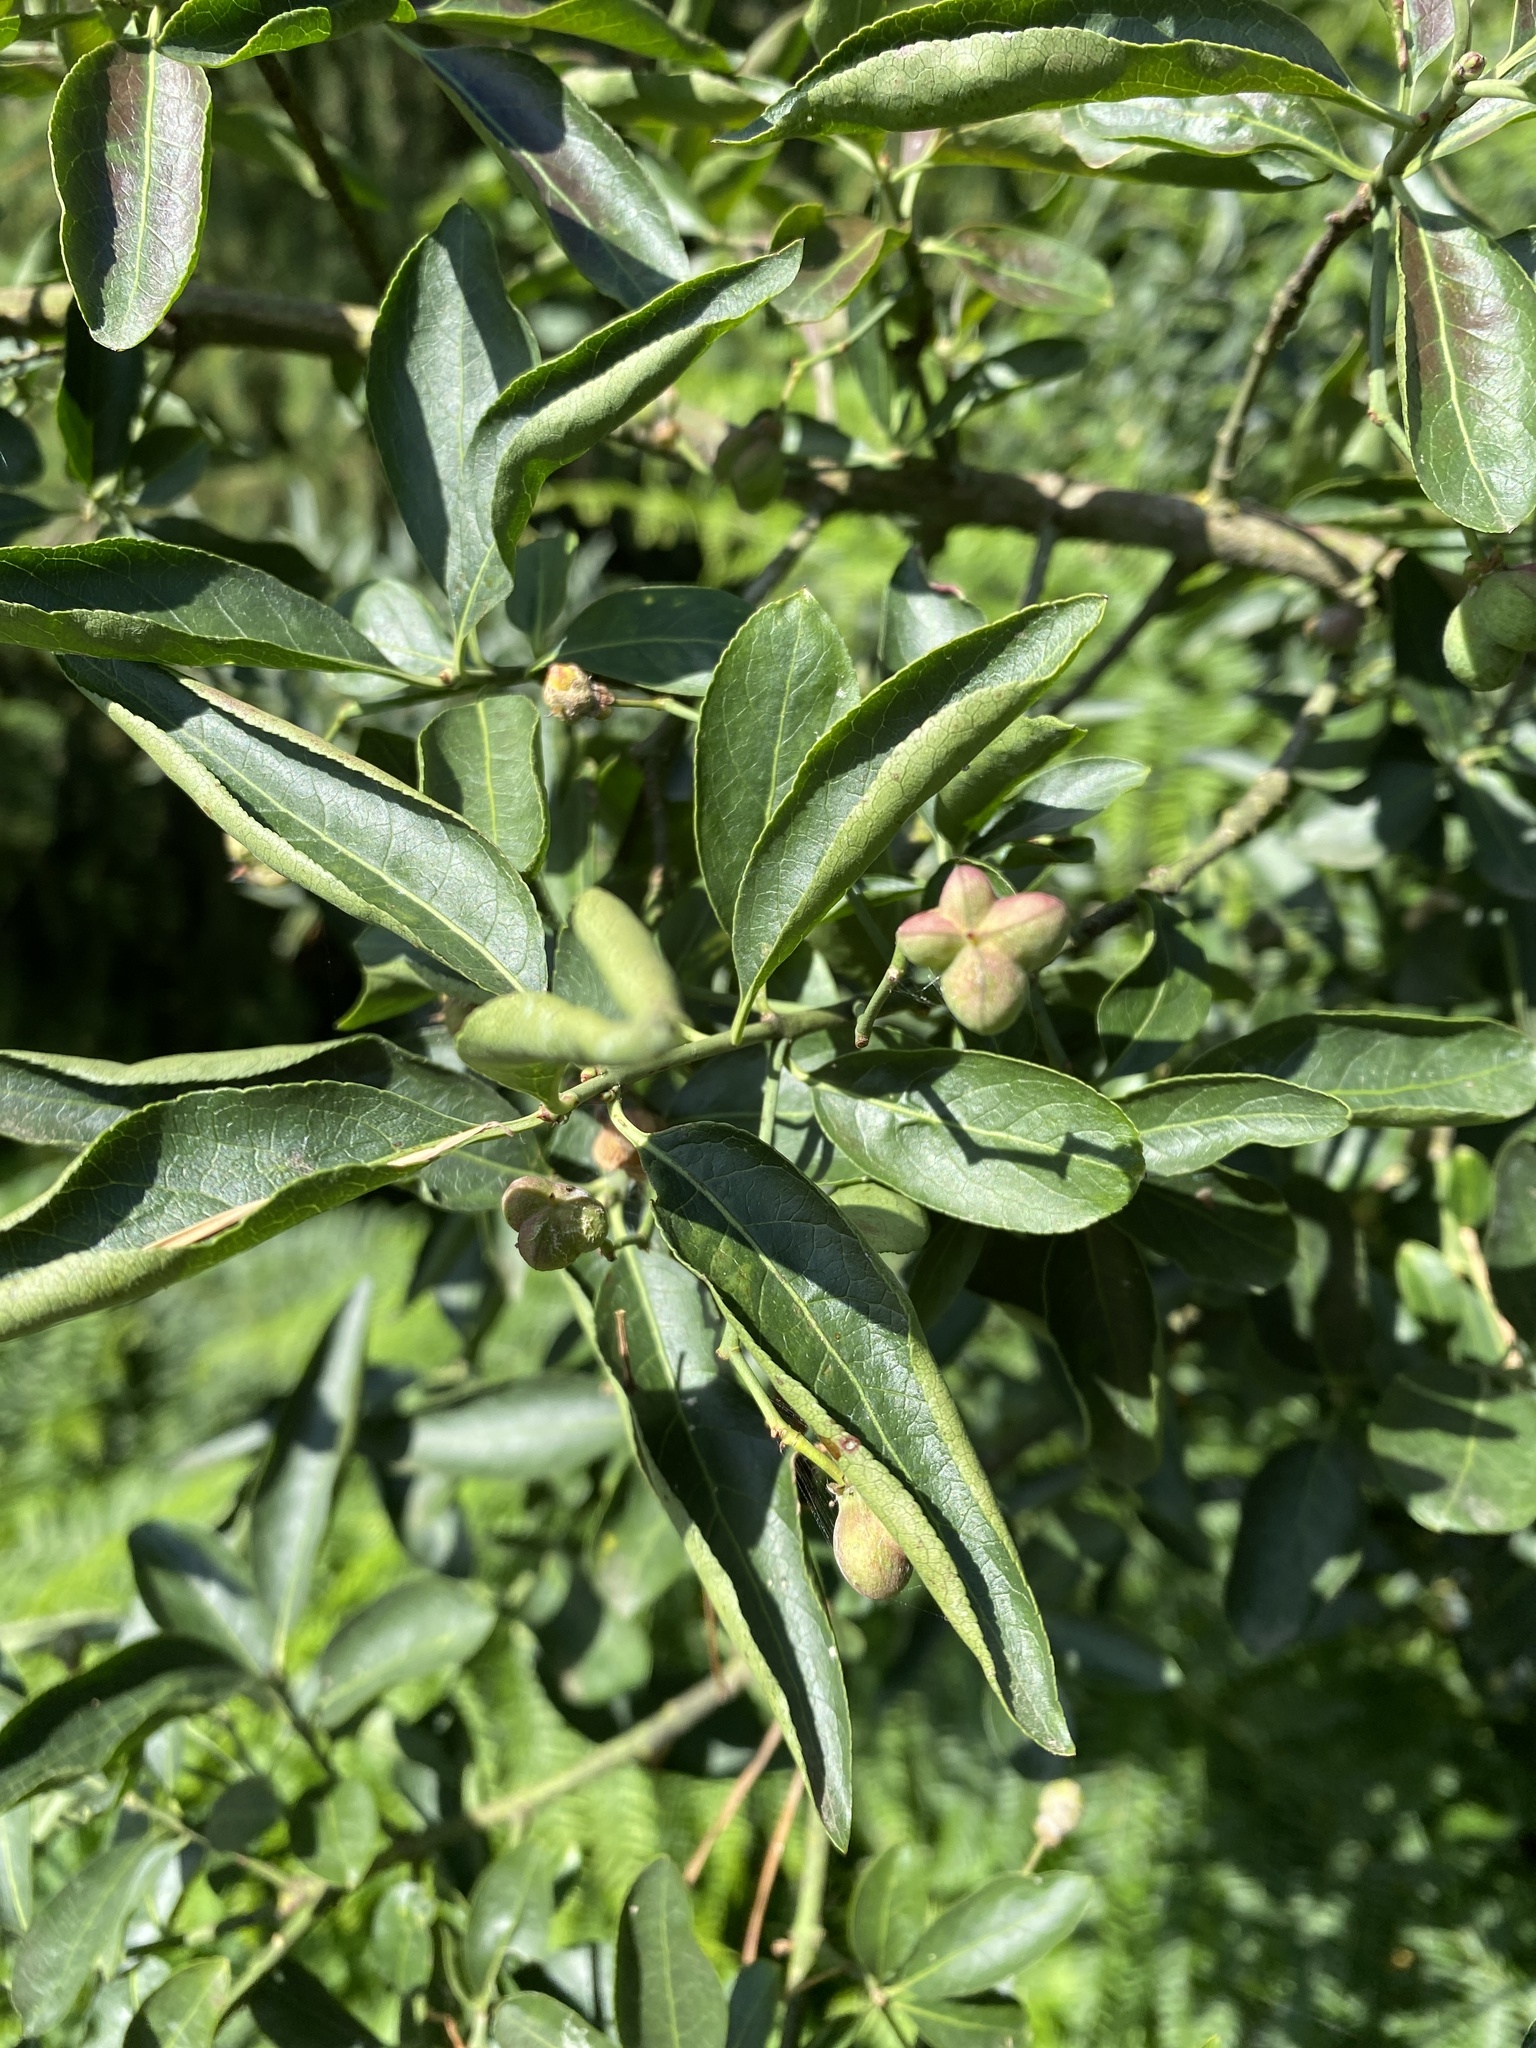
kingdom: Plantae
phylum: Tracheophyta
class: Magnoliopsida
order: Celastrales
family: Celastraceae
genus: Euonymus
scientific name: Euonymus europaeus
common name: Spindle
